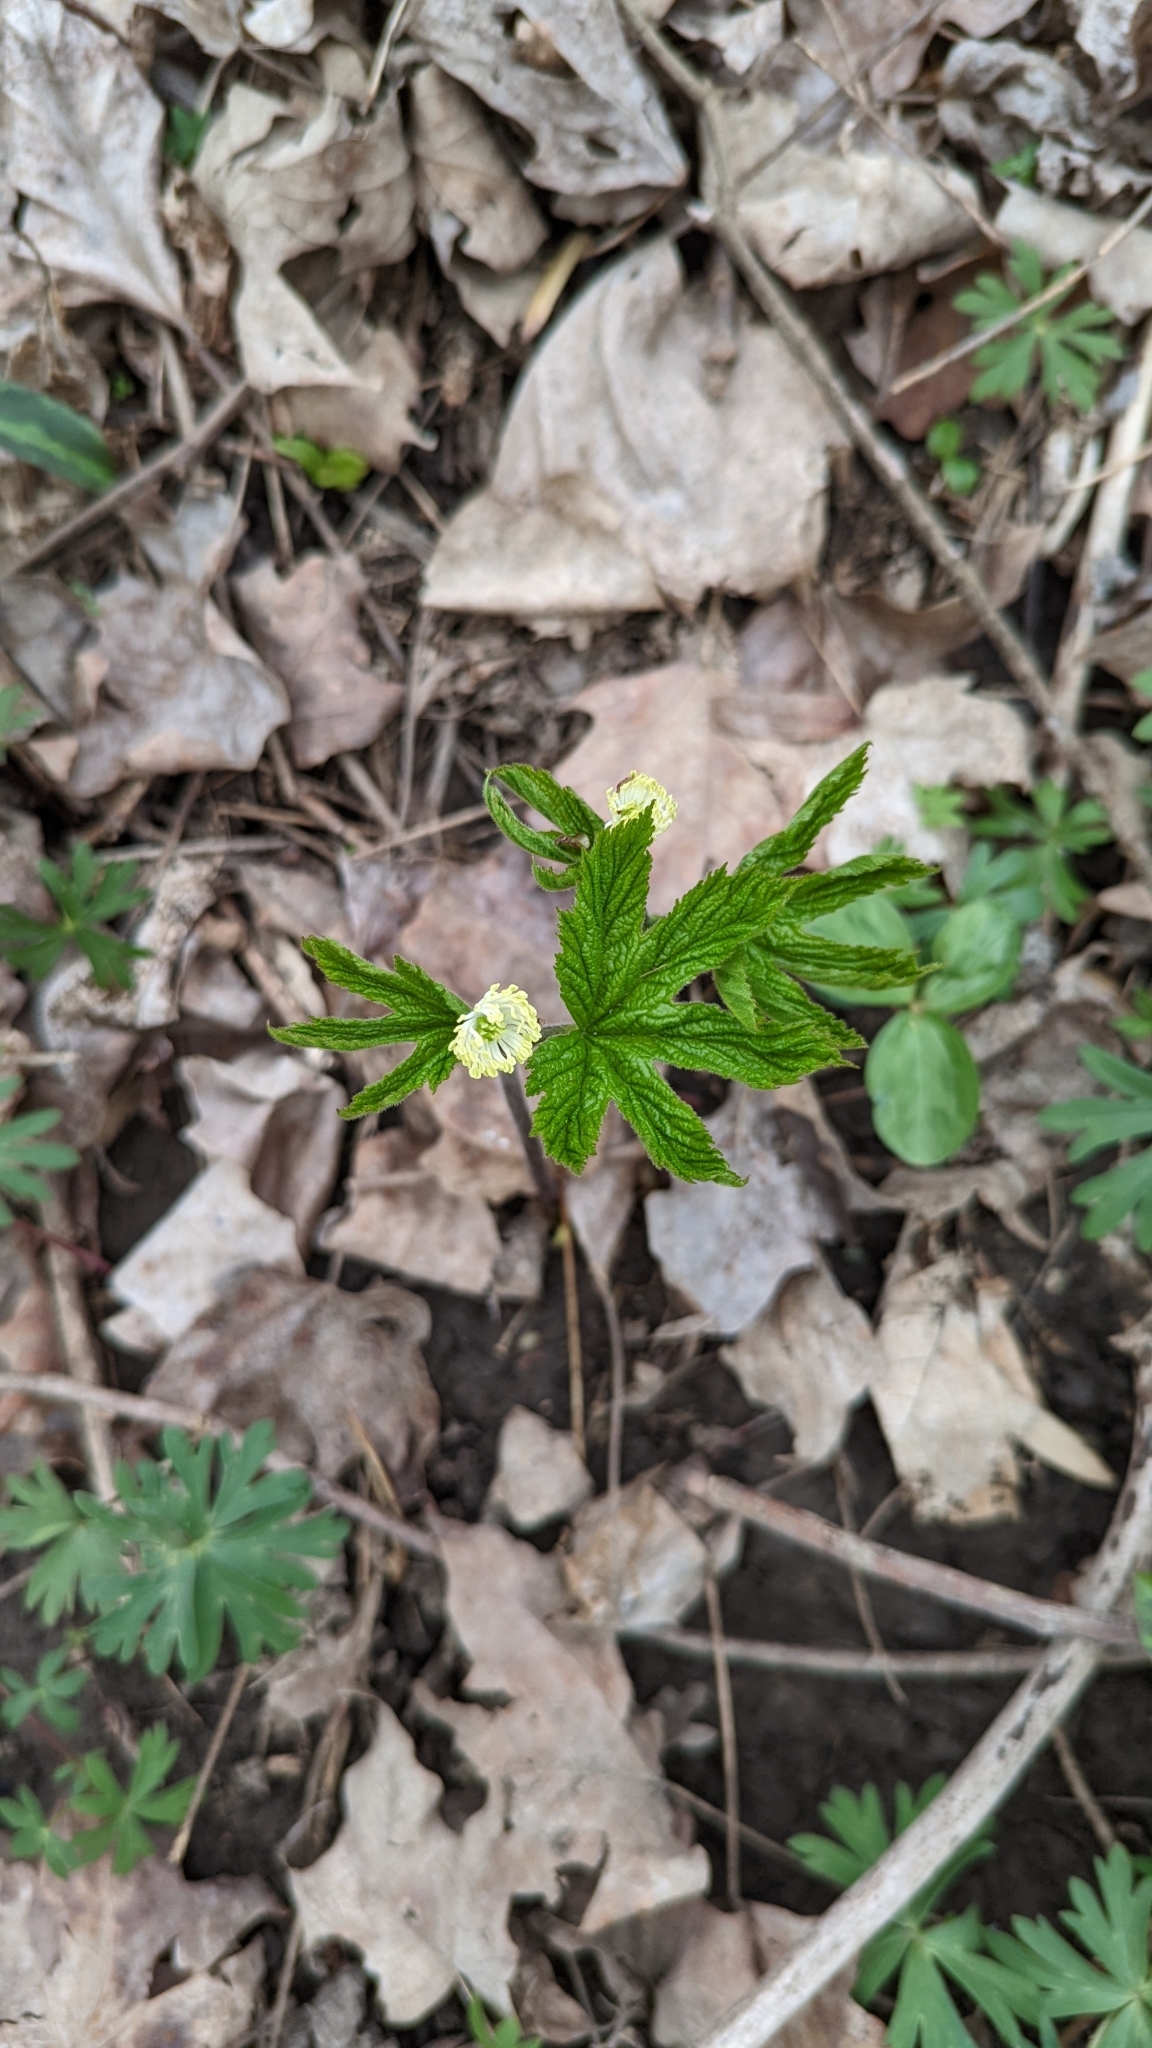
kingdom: Plantae
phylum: Tracheophyta
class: Magnoliopsida
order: Ranunculales
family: Ranunculaceae
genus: Hydrastis
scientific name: Hydrastis canadensis
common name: Goldenseal
